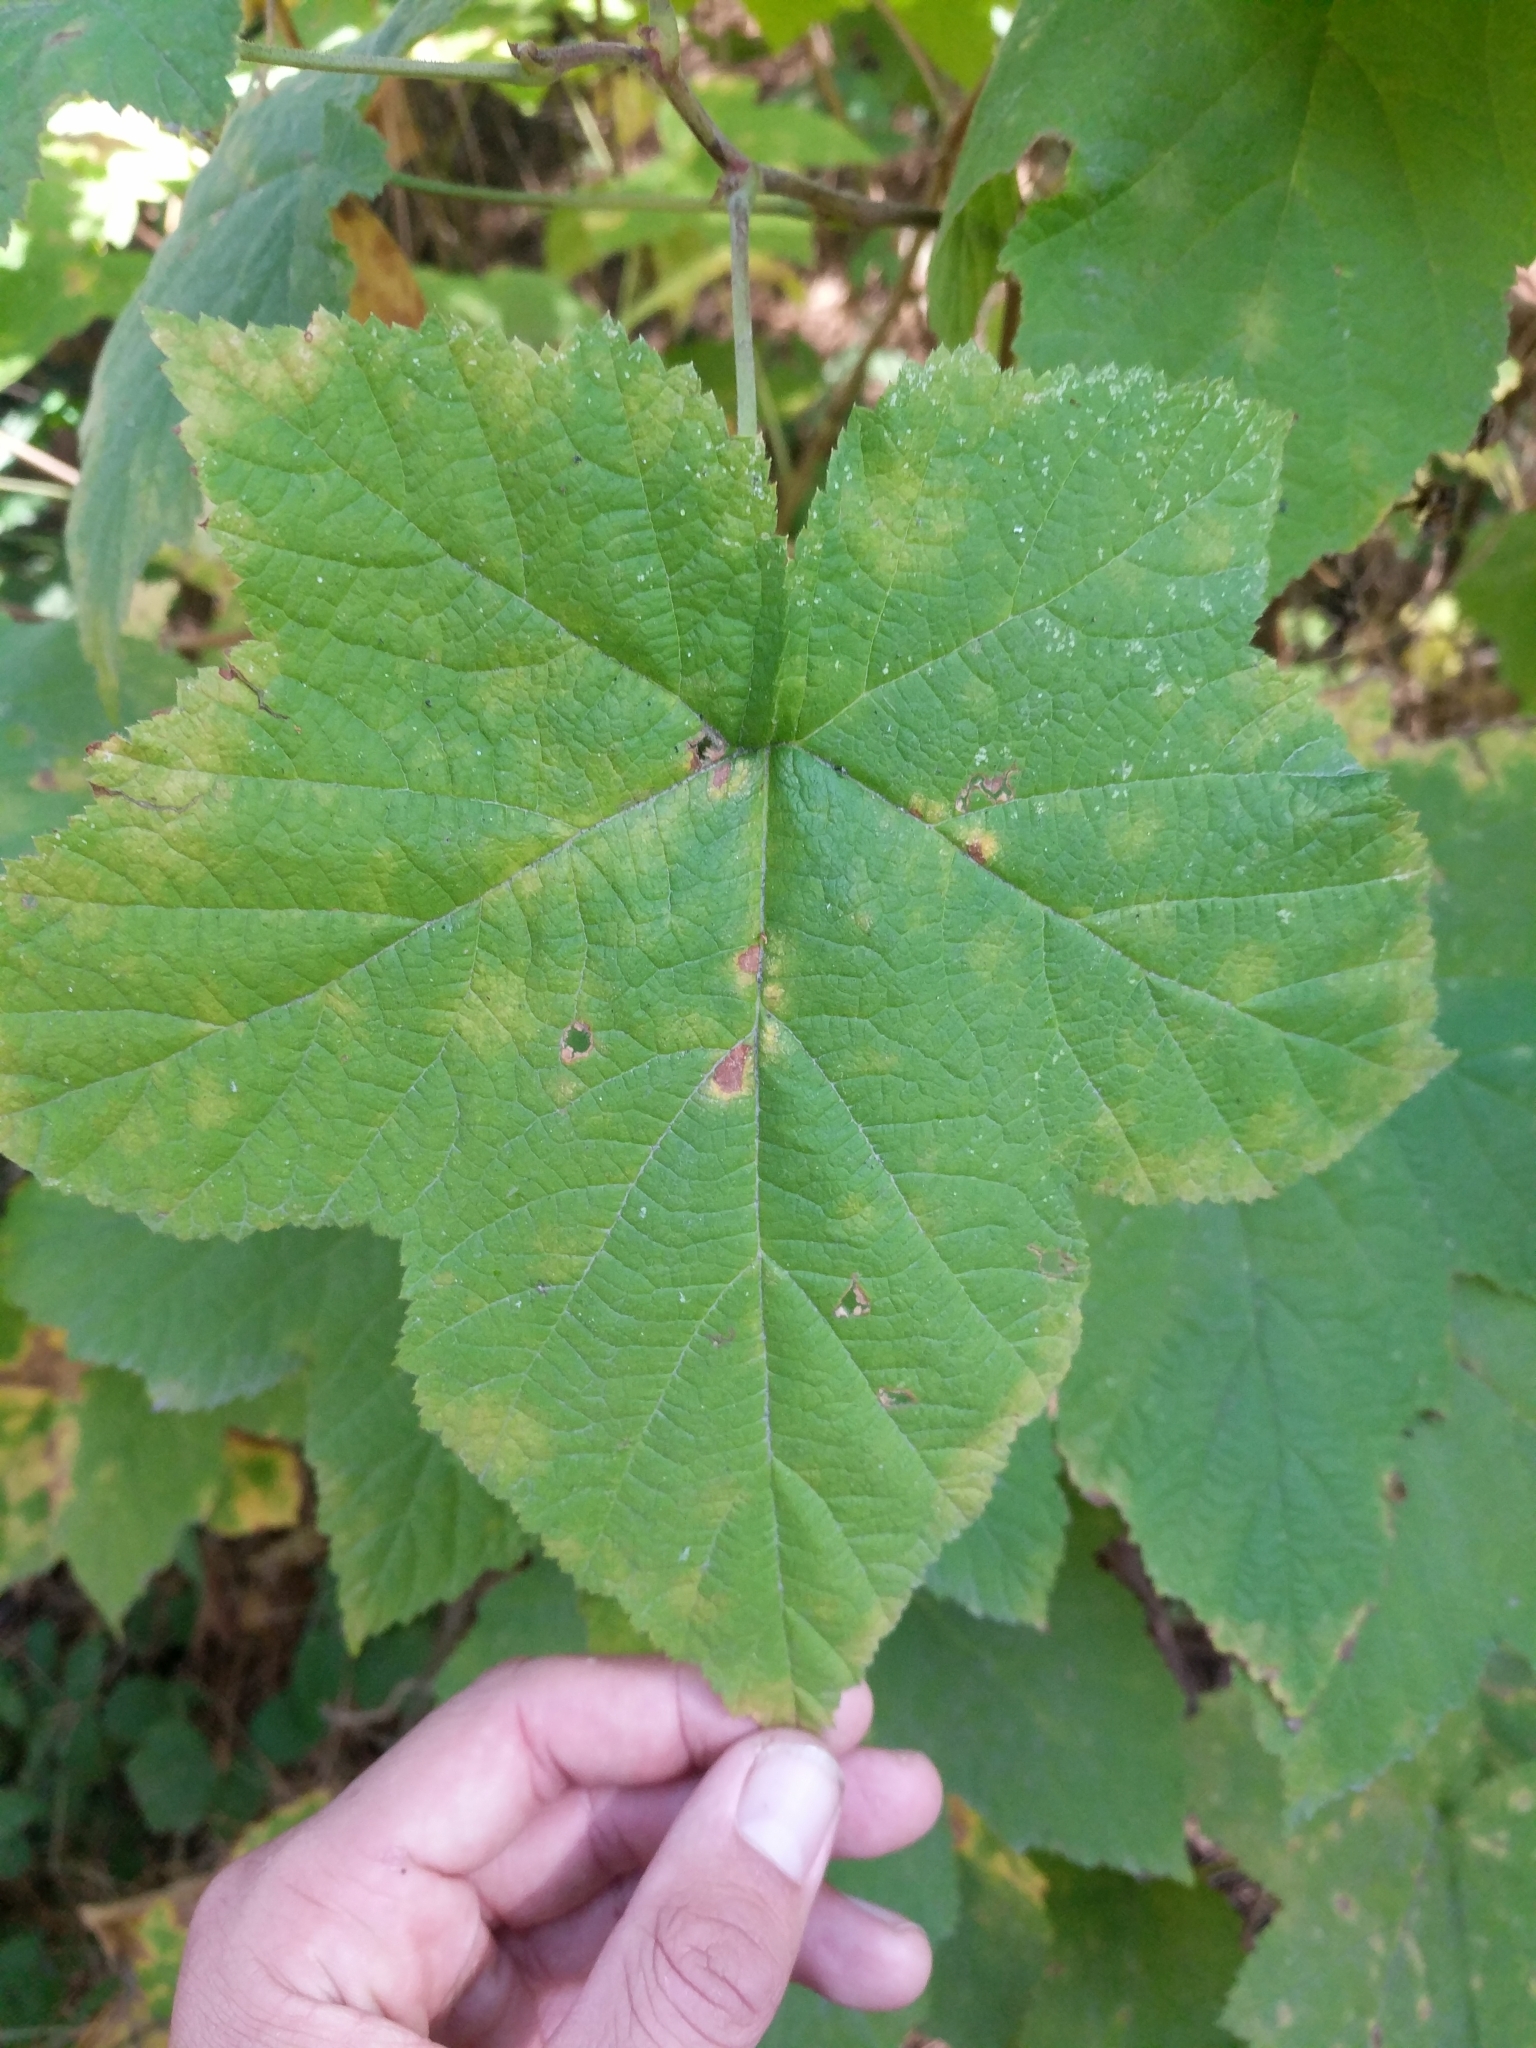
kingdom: Plantae
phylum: Tracheophyta
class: Magnoliopsida
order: Rosales
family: Rosaceae
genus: Rubus
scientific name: Rubus parviflorus
